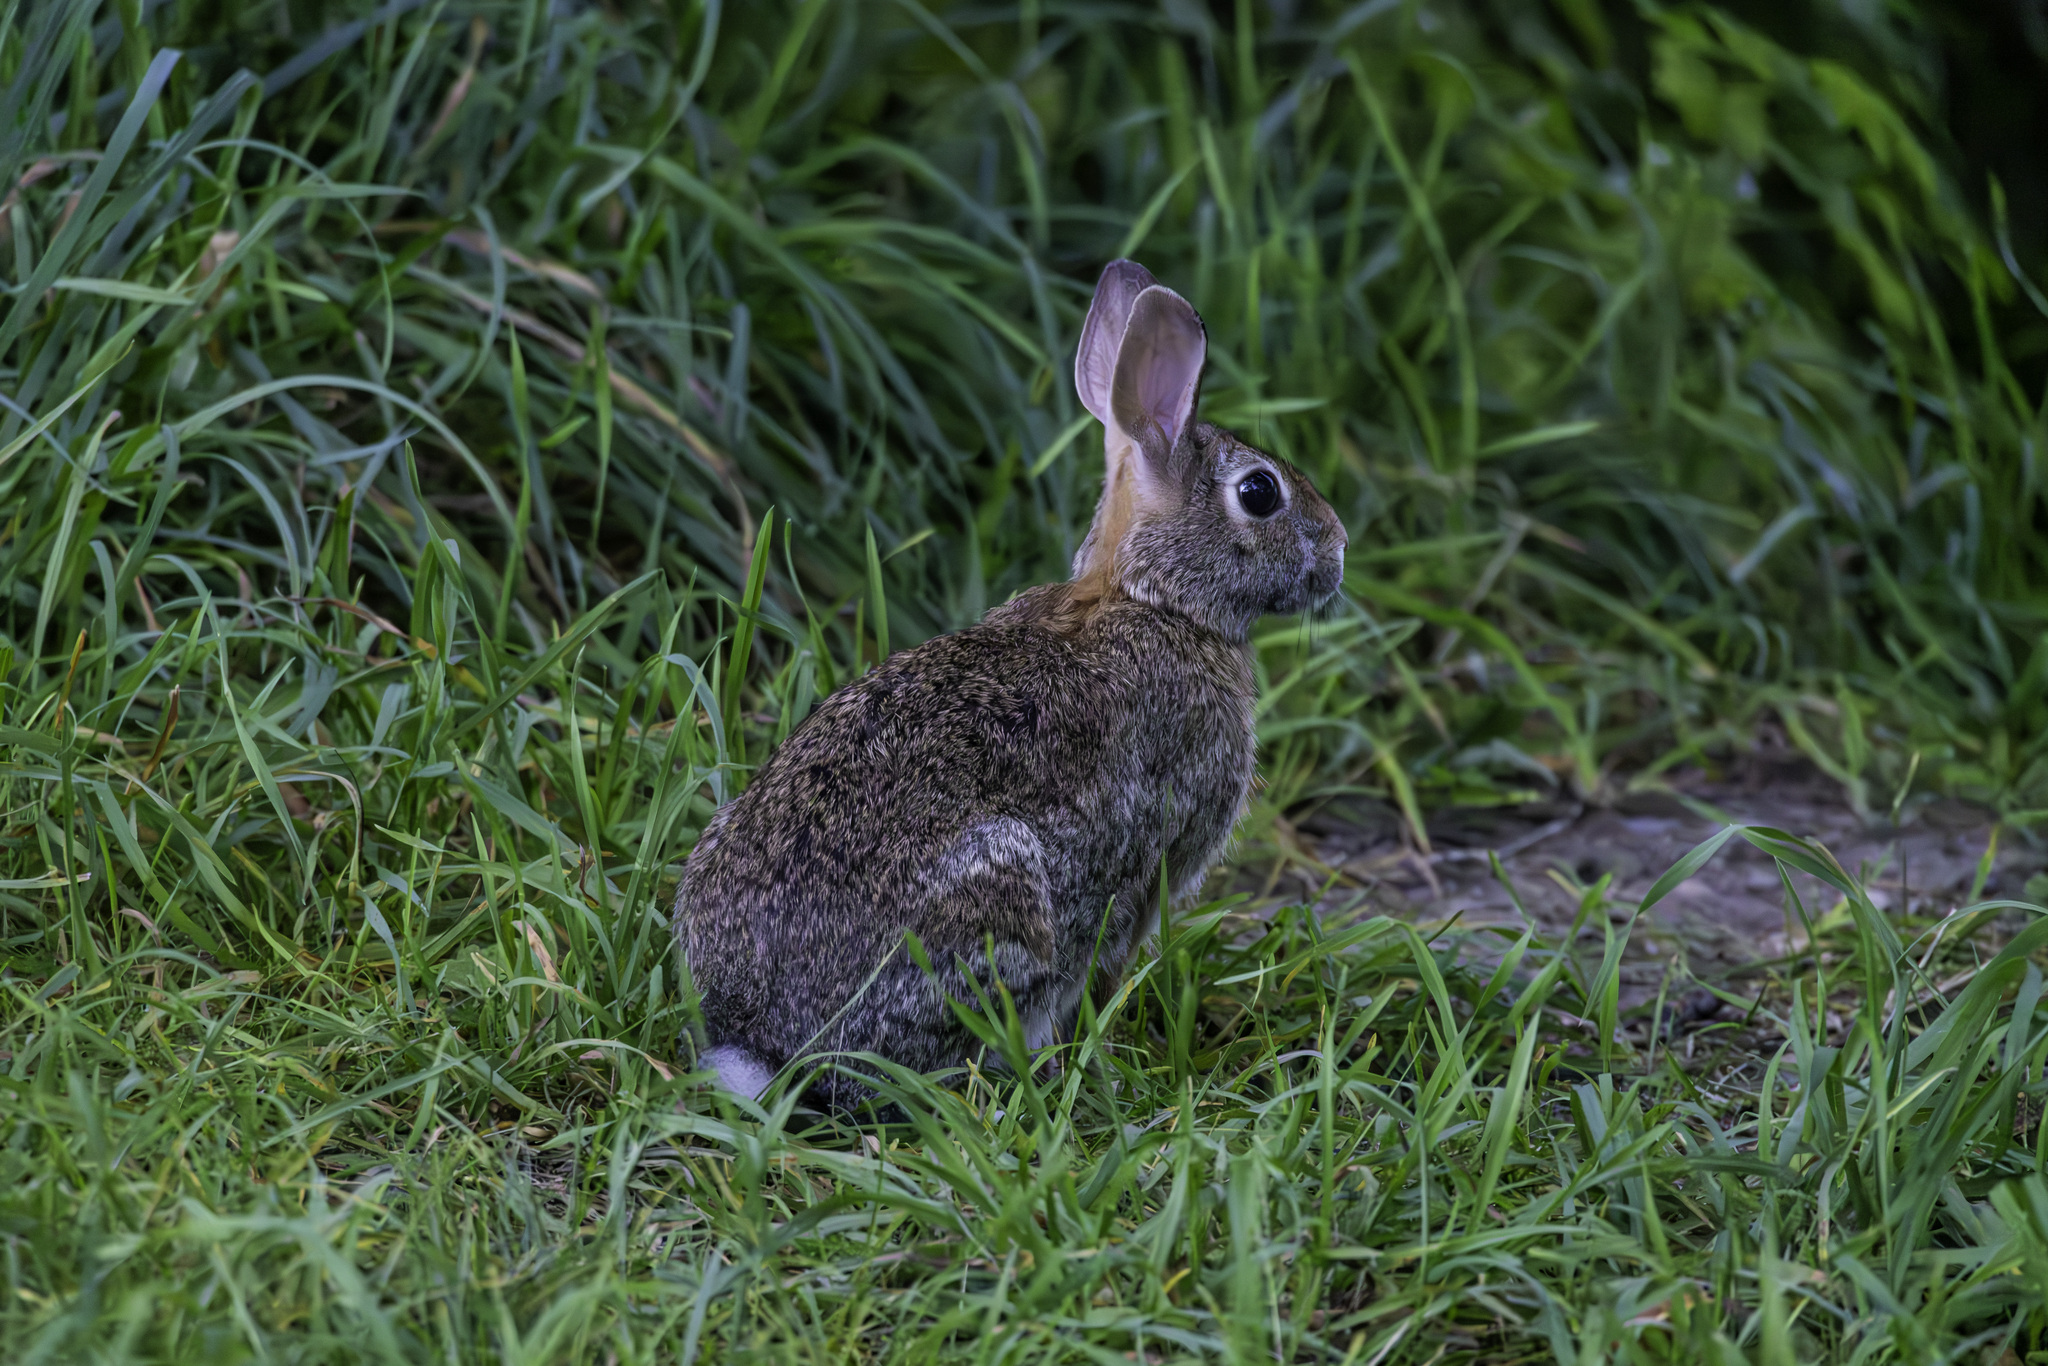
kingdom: Animalia
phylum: Chordata
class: Mammalia
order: Lagomorpha
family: Leporidae
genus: Sylvilagus
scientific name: Sylvilagus floridanus
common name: Eastern cottontail
